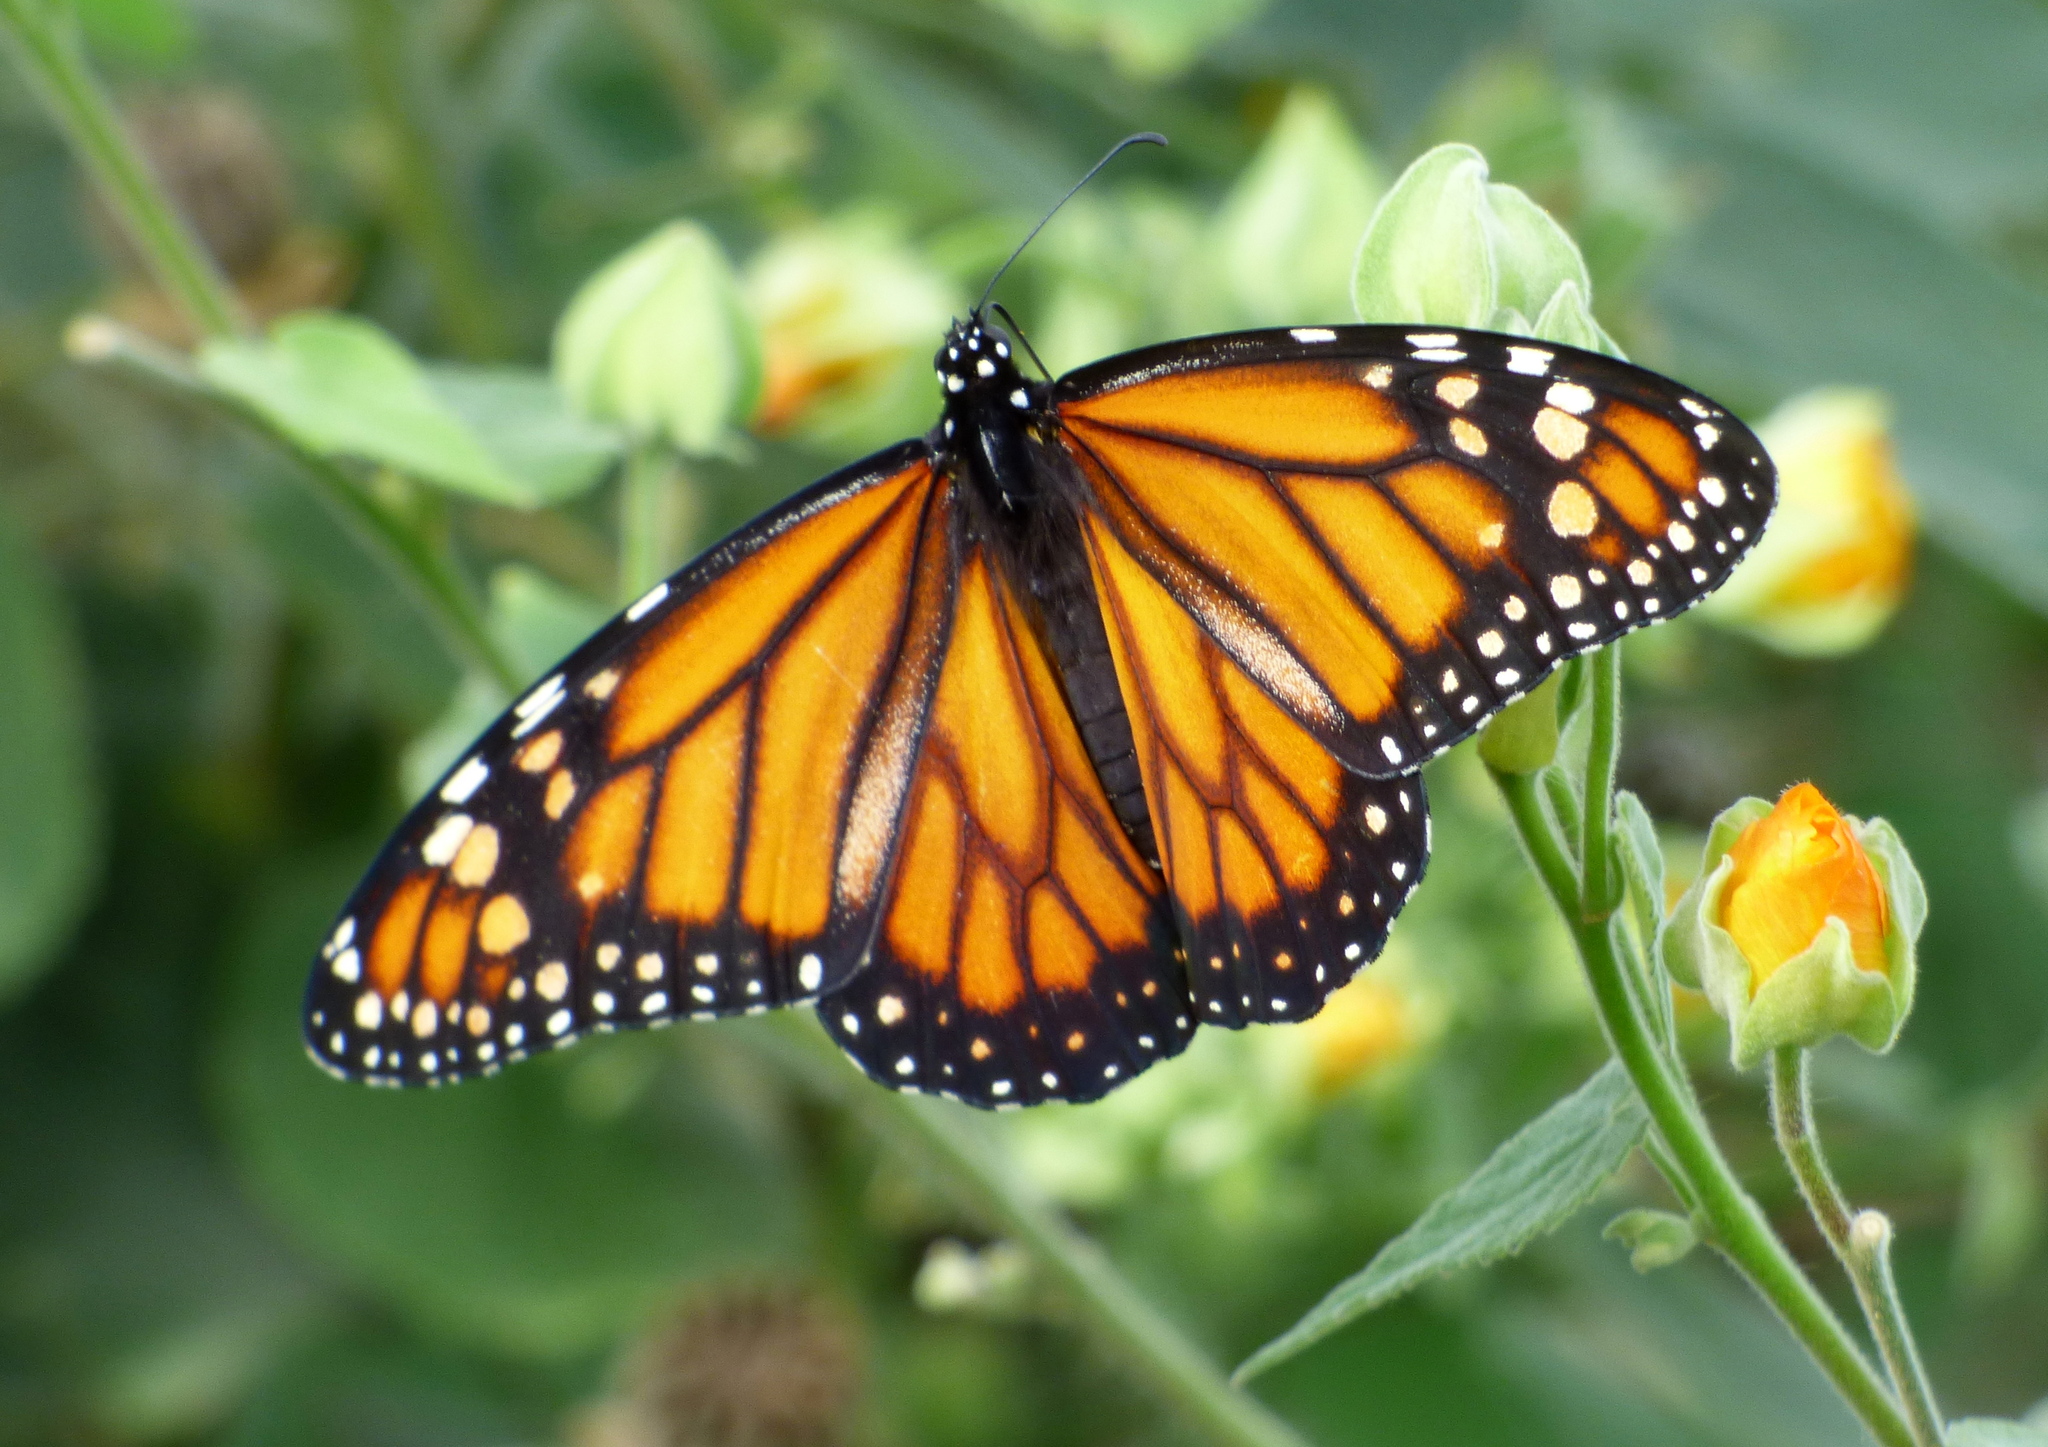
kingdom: Animalia
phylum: Arthropoda
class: Insecta
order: Lepidoptera
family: Nymphalidae
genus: Danaus
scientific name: Danaus erippus
